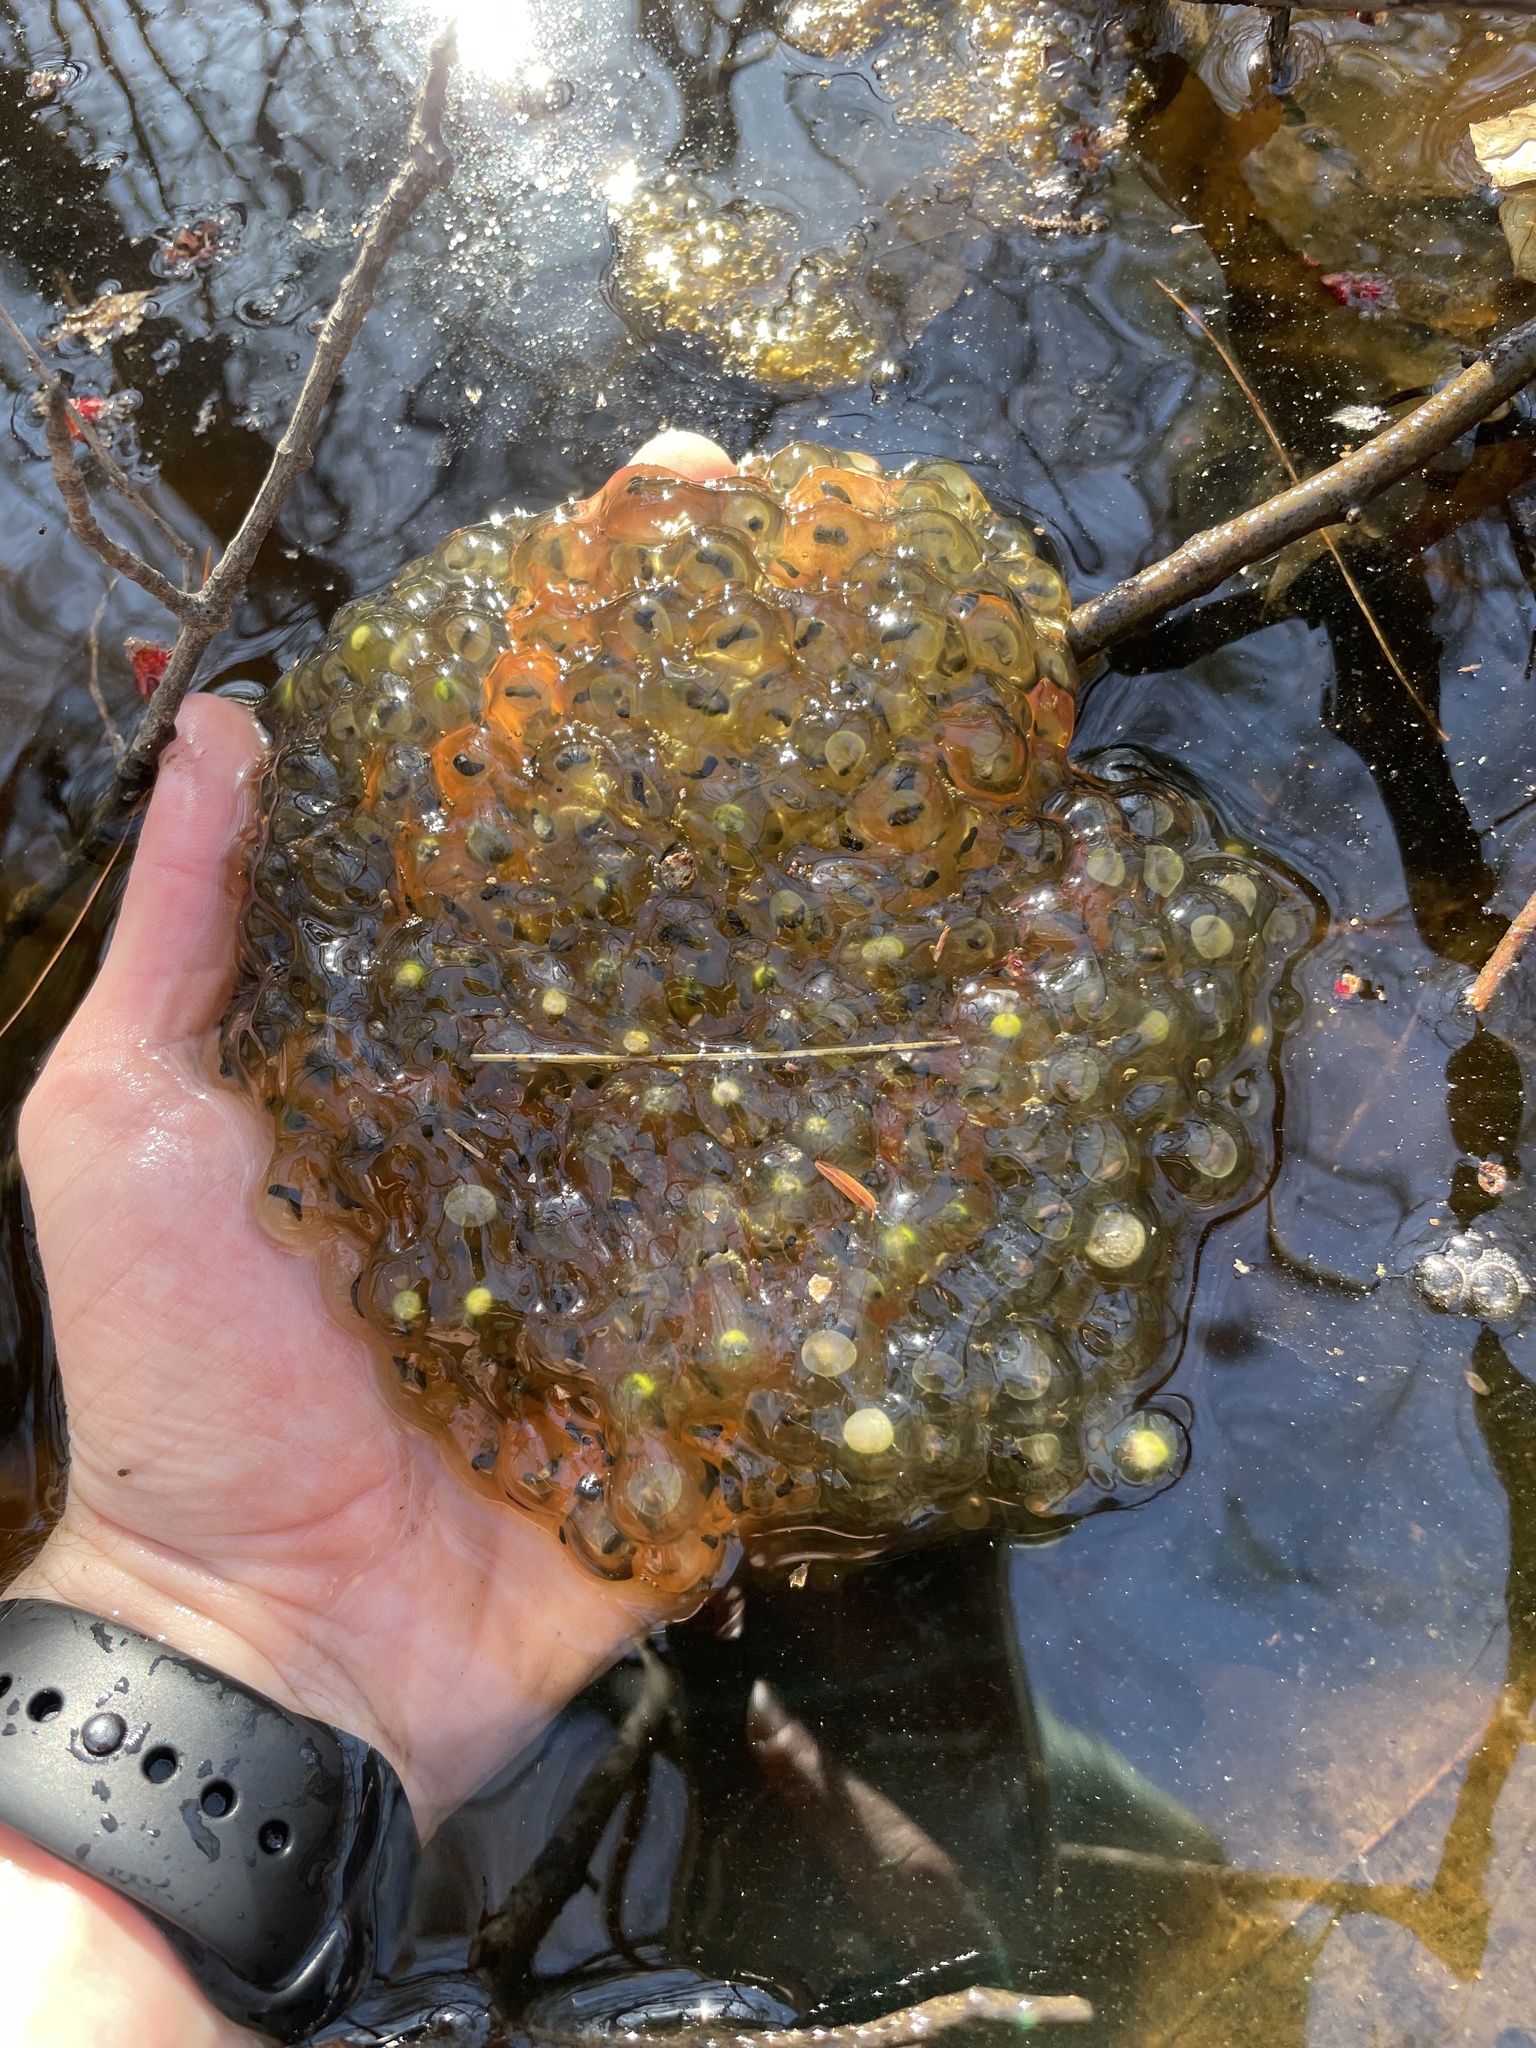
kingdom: Animalia
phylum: Chordata
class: Amphibia
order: Anura
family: Ranidae
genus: Lithobates
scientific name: Lithobates sylvaticus
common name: Wood frog
